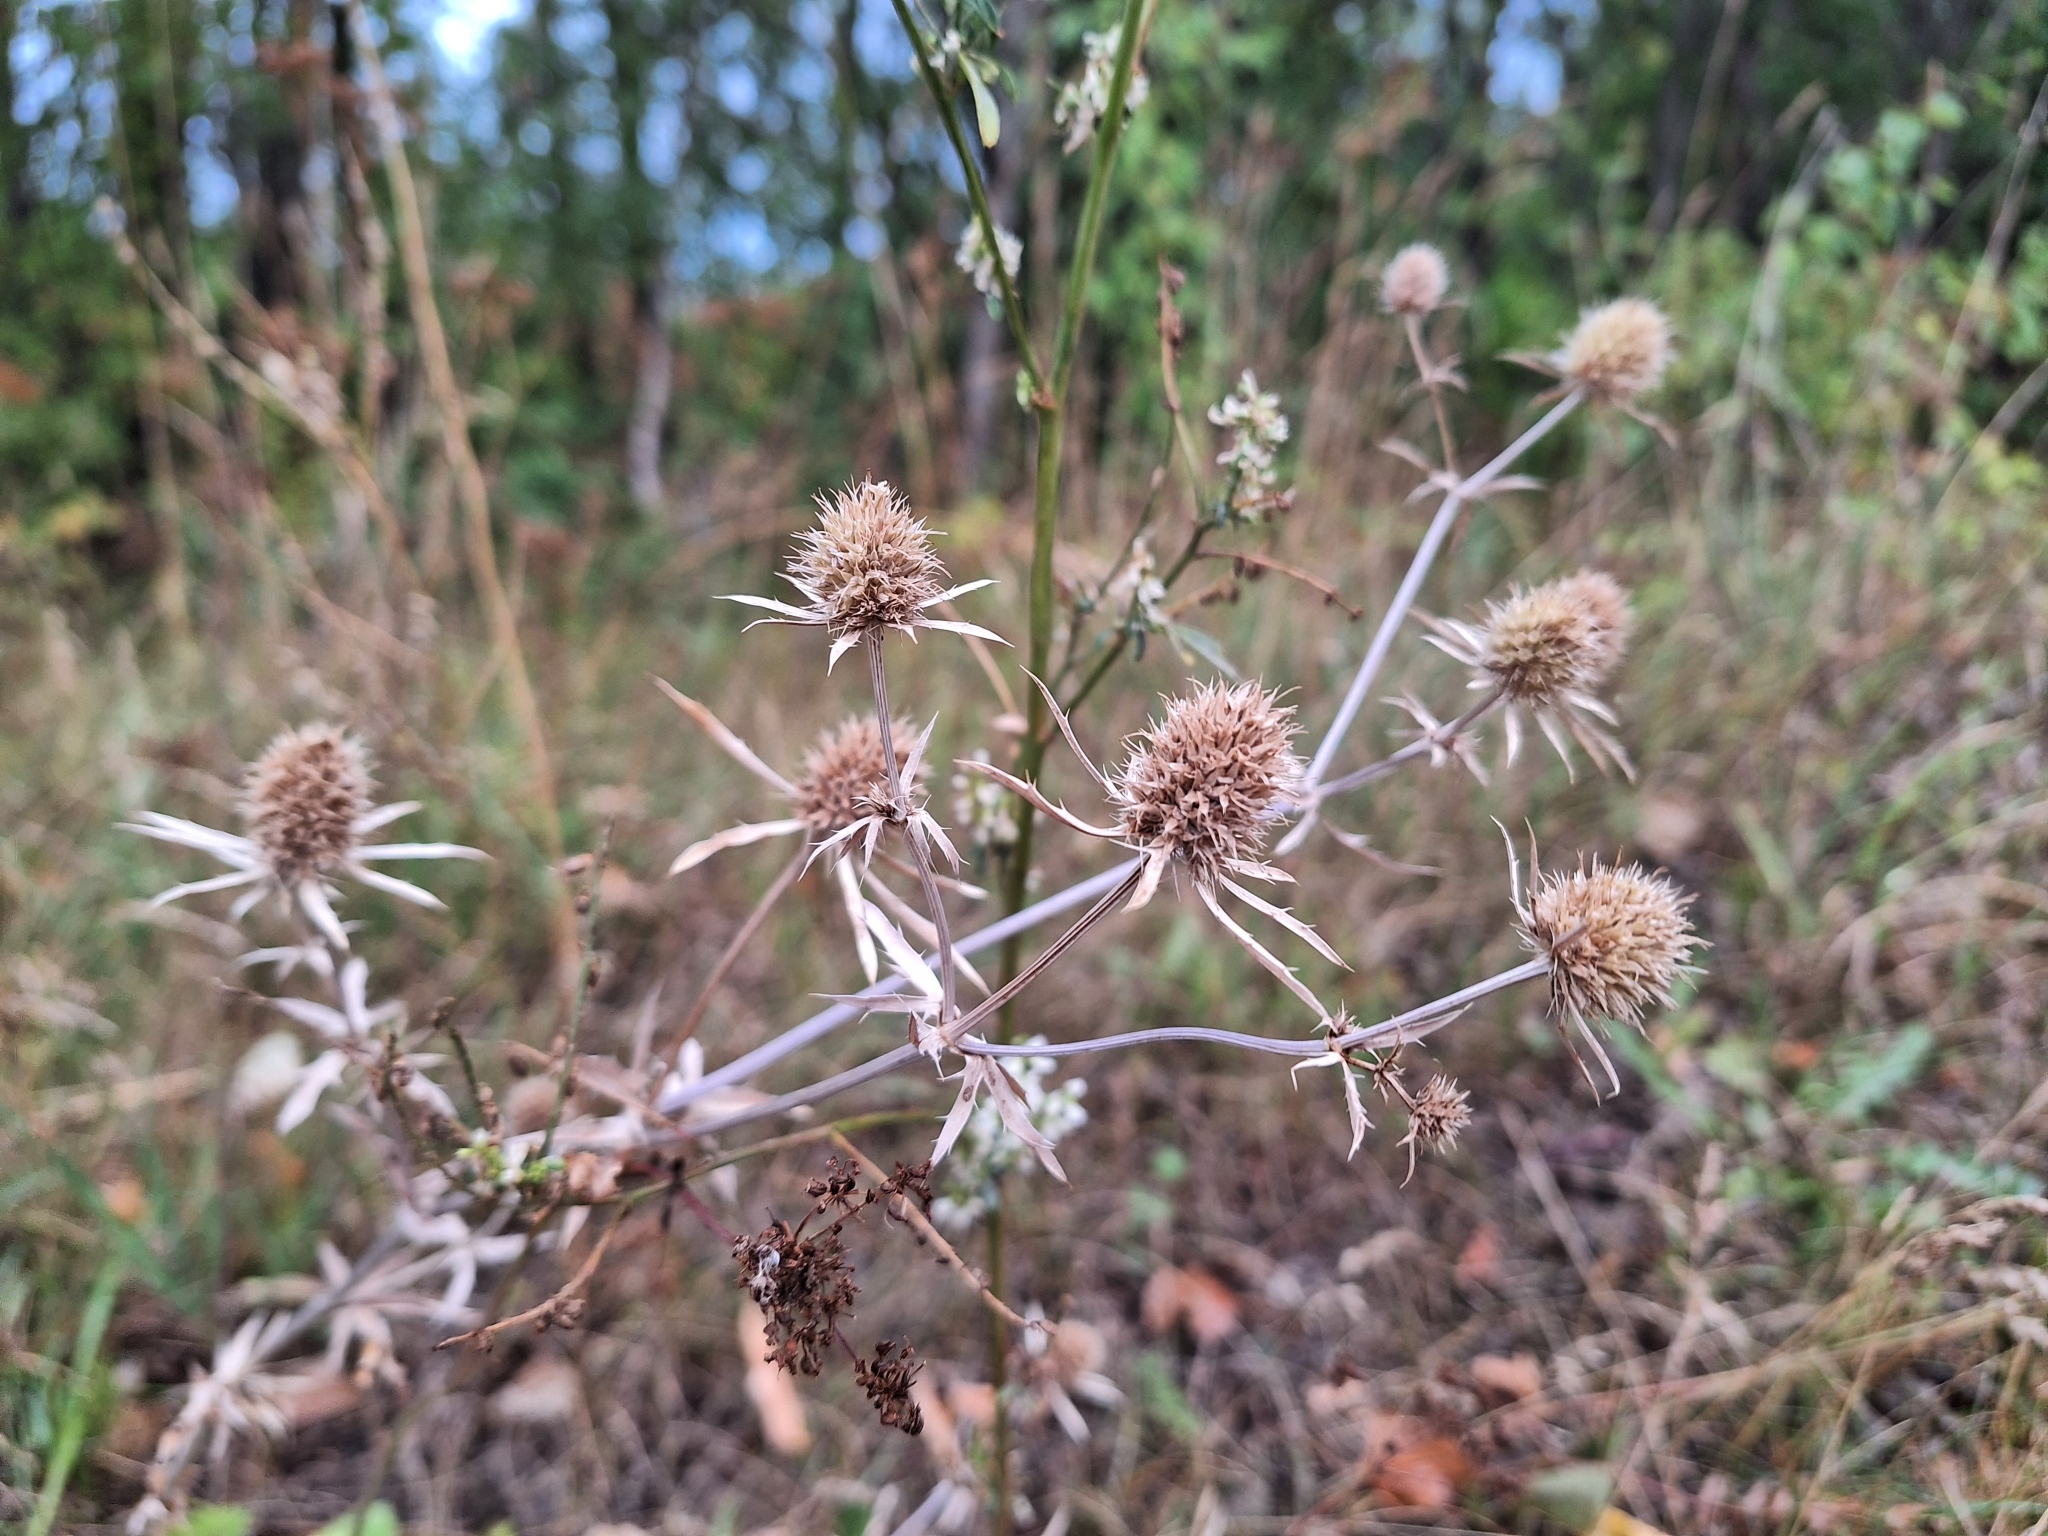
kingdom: Plantae
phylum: Tracheophyta
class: Magnoliopsida
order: Apiales
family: Apiaceae
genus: Eryngium
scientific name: Eryngium planum
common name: Blue eryngo
